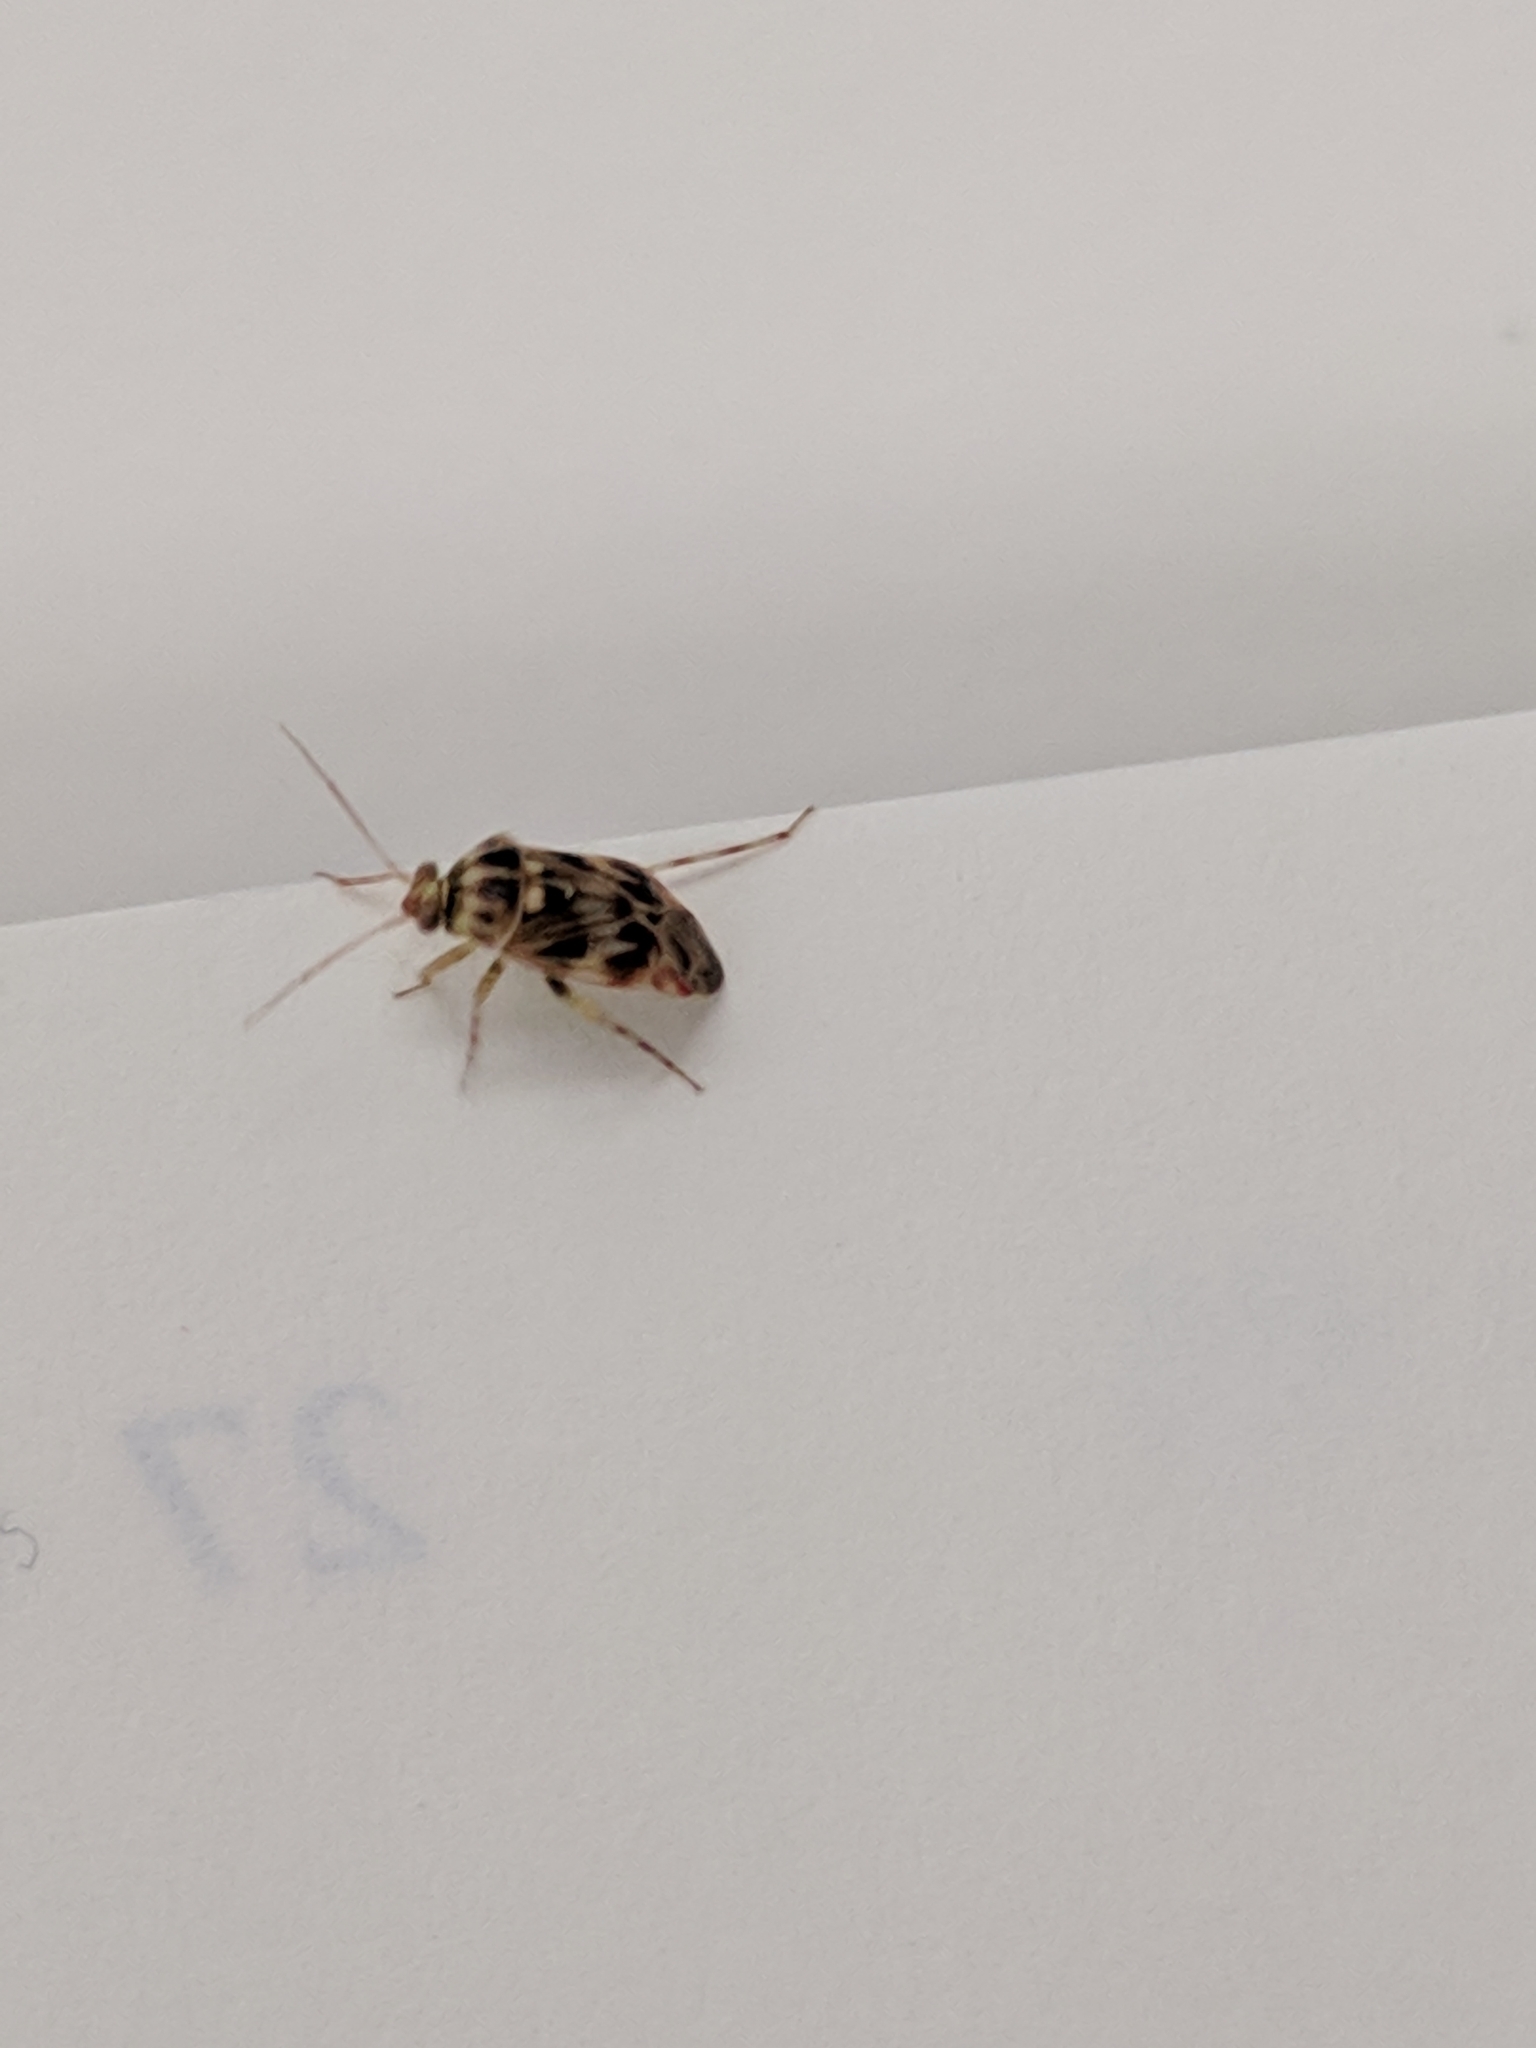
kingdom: Animalia
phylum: Arthropoda
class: Insecta
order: Hemiptera
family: Miridae
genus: Tropidosteptes
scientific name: Tropidosteptes quercicola
